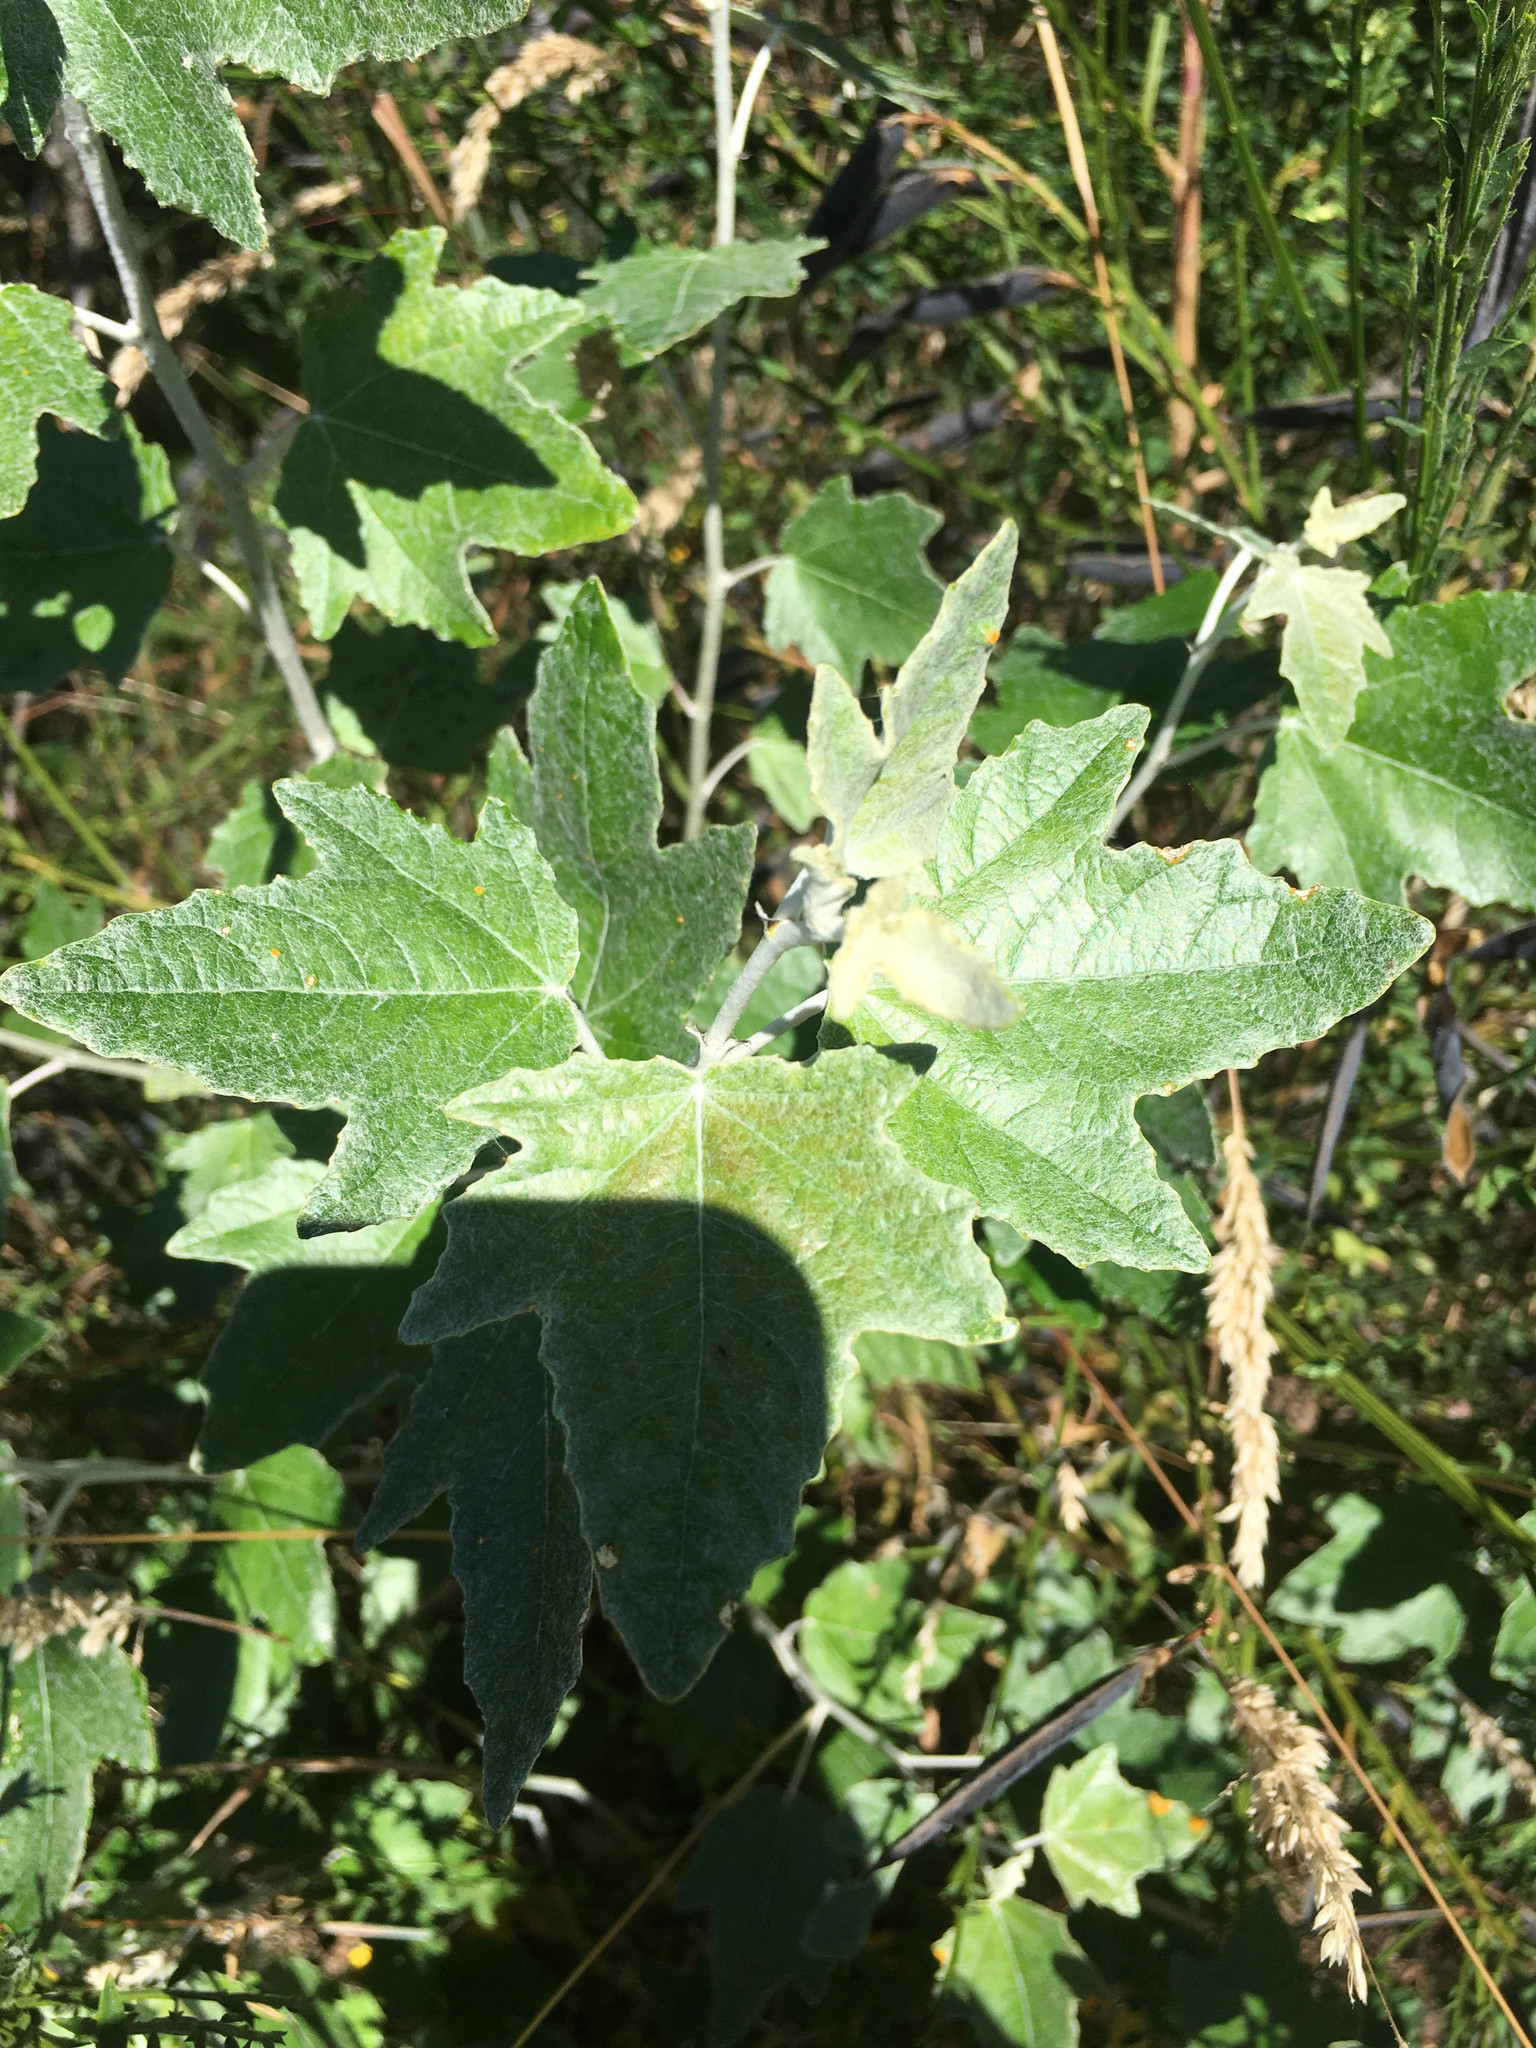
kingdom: Plantae
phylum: Tracheophyta
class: Magnoliopsida
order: Malpighiales
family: Salicaceae
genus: Populus
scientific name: Populus alba
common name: White poplar
